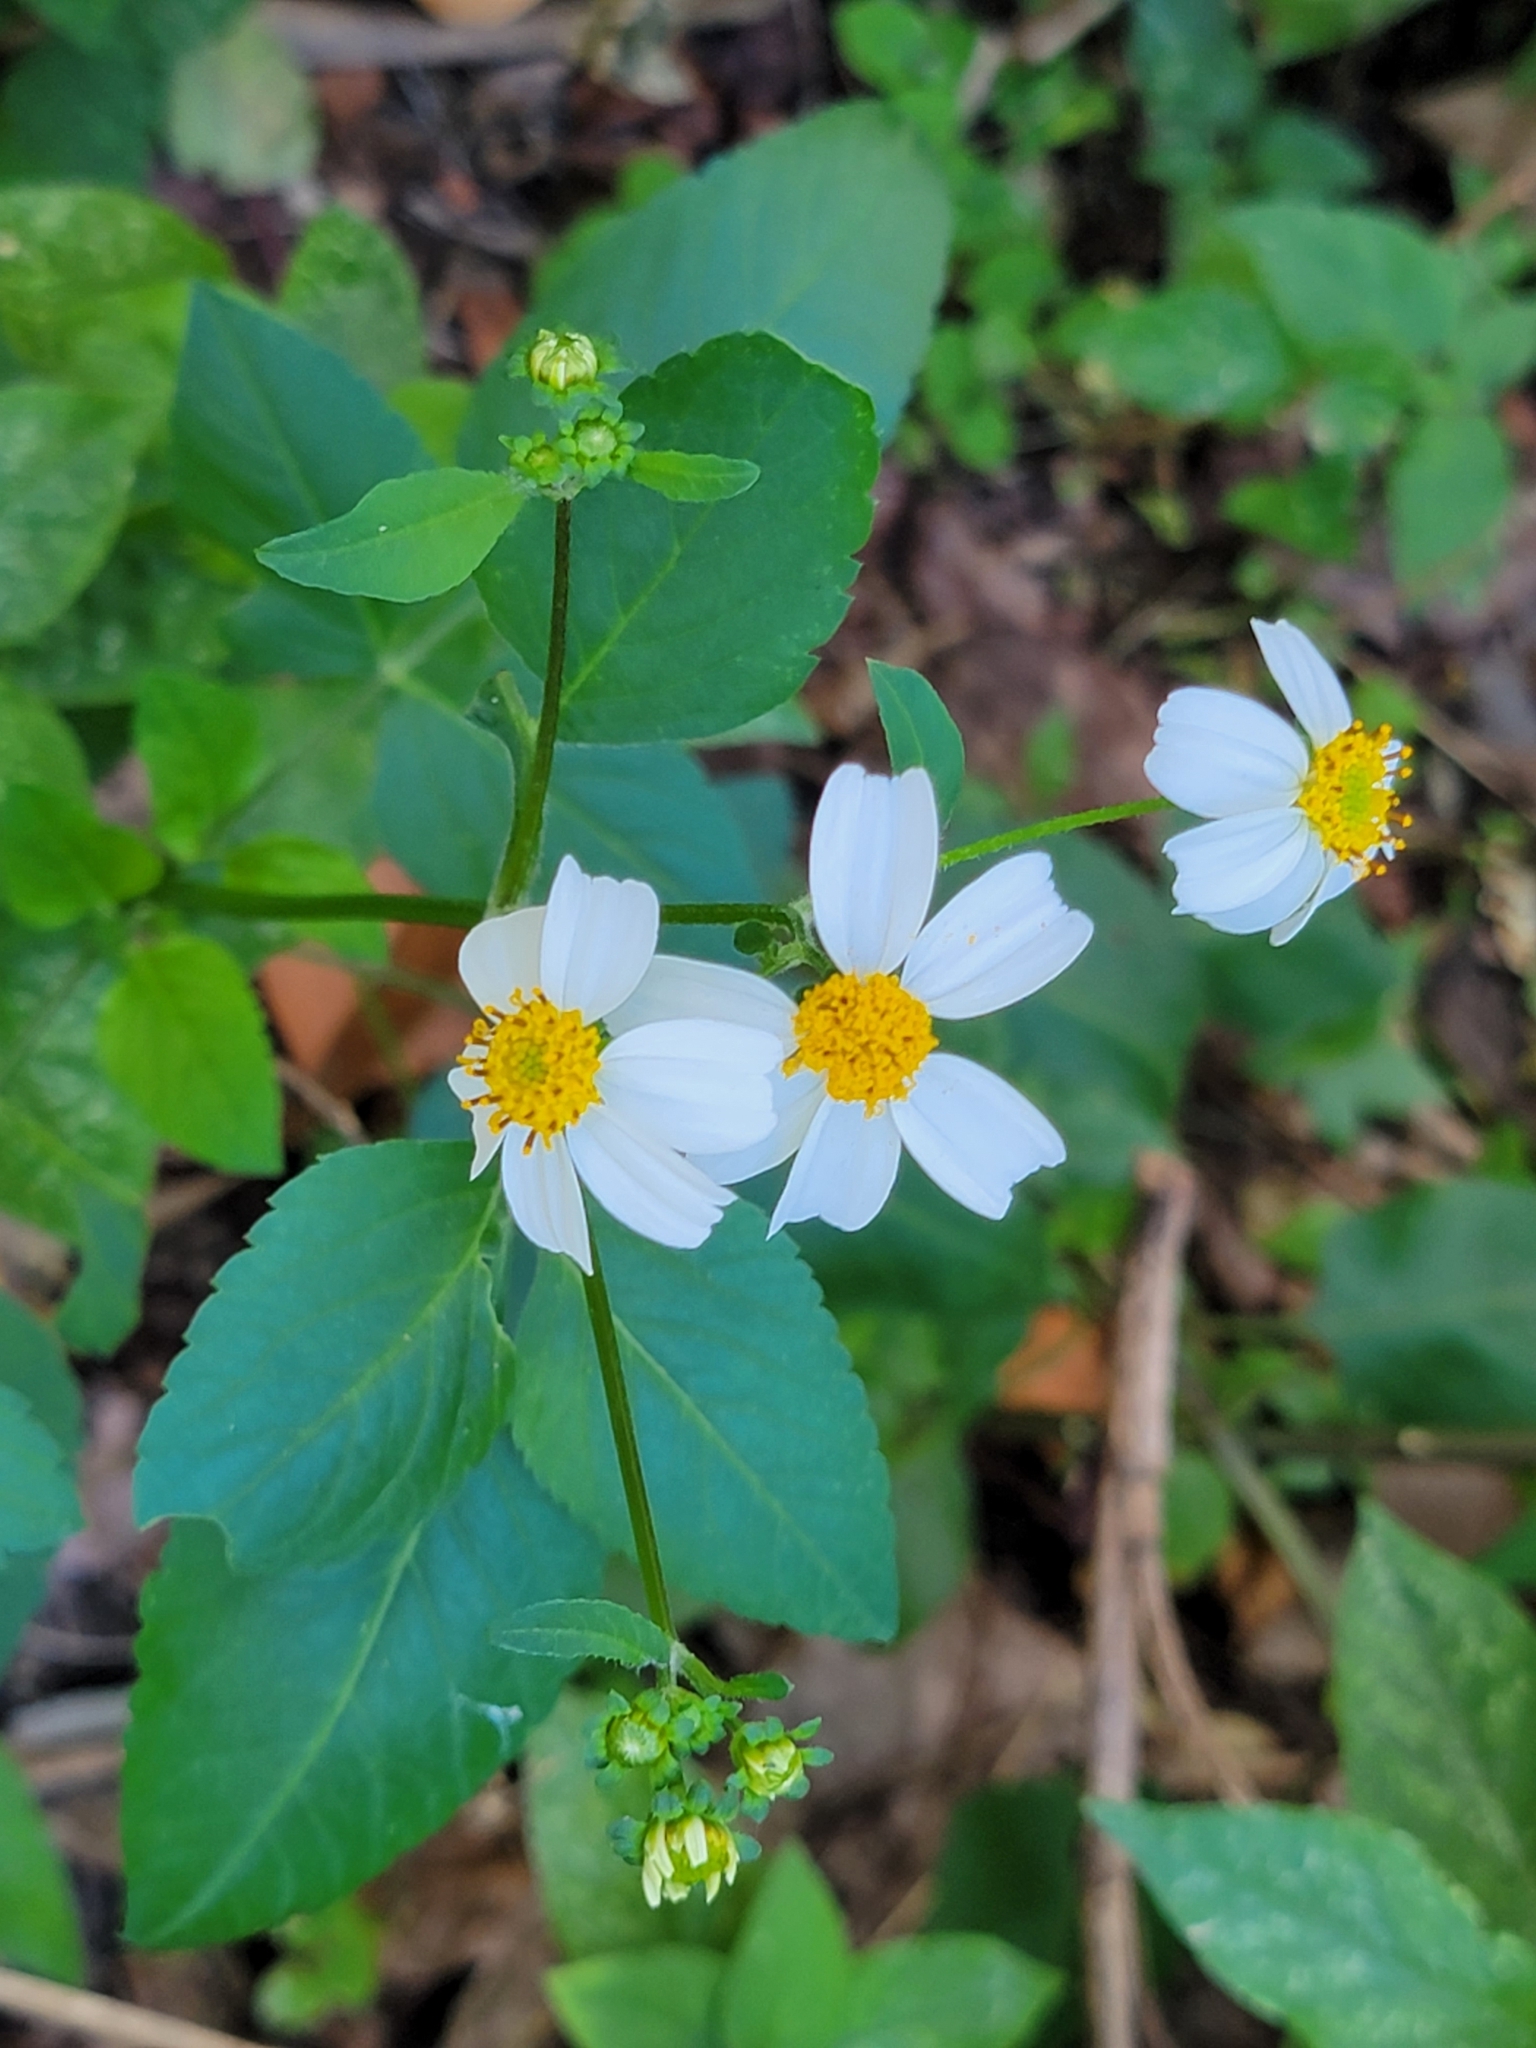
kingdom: Plantae
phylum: Tracheophyta
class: Magnoliopsida
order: Asterales
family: Asteraceae
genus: Bidens
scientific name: Bidens alba
